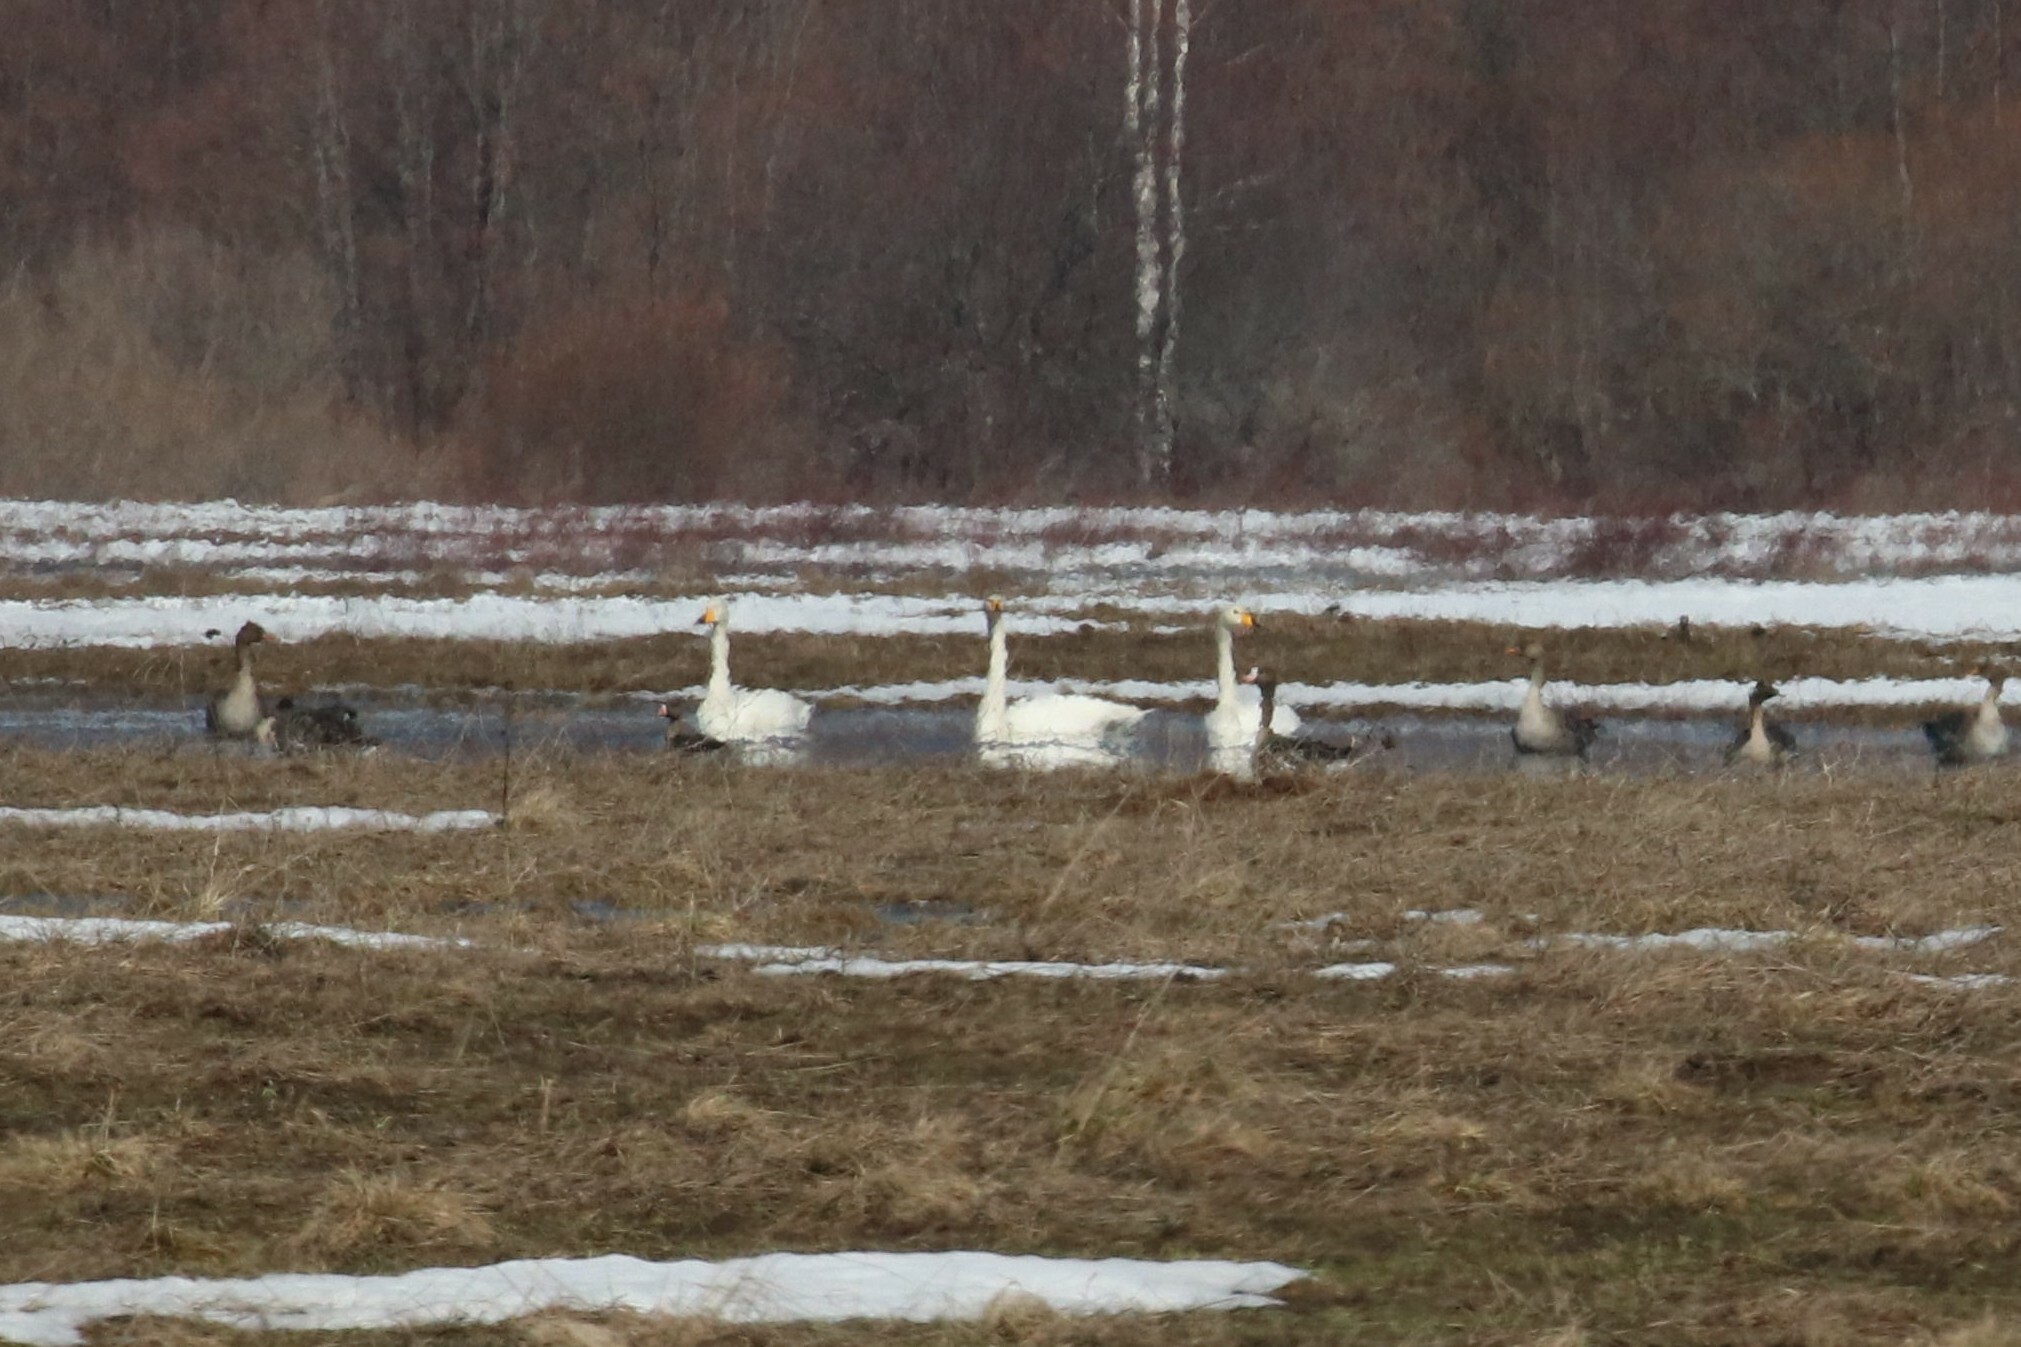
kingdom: Animalia
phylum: Chordata
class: Aves
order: Anseriformes
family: Anatidae
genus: Cygnus
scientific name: Cygnus cygnus
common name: Whooper swan
